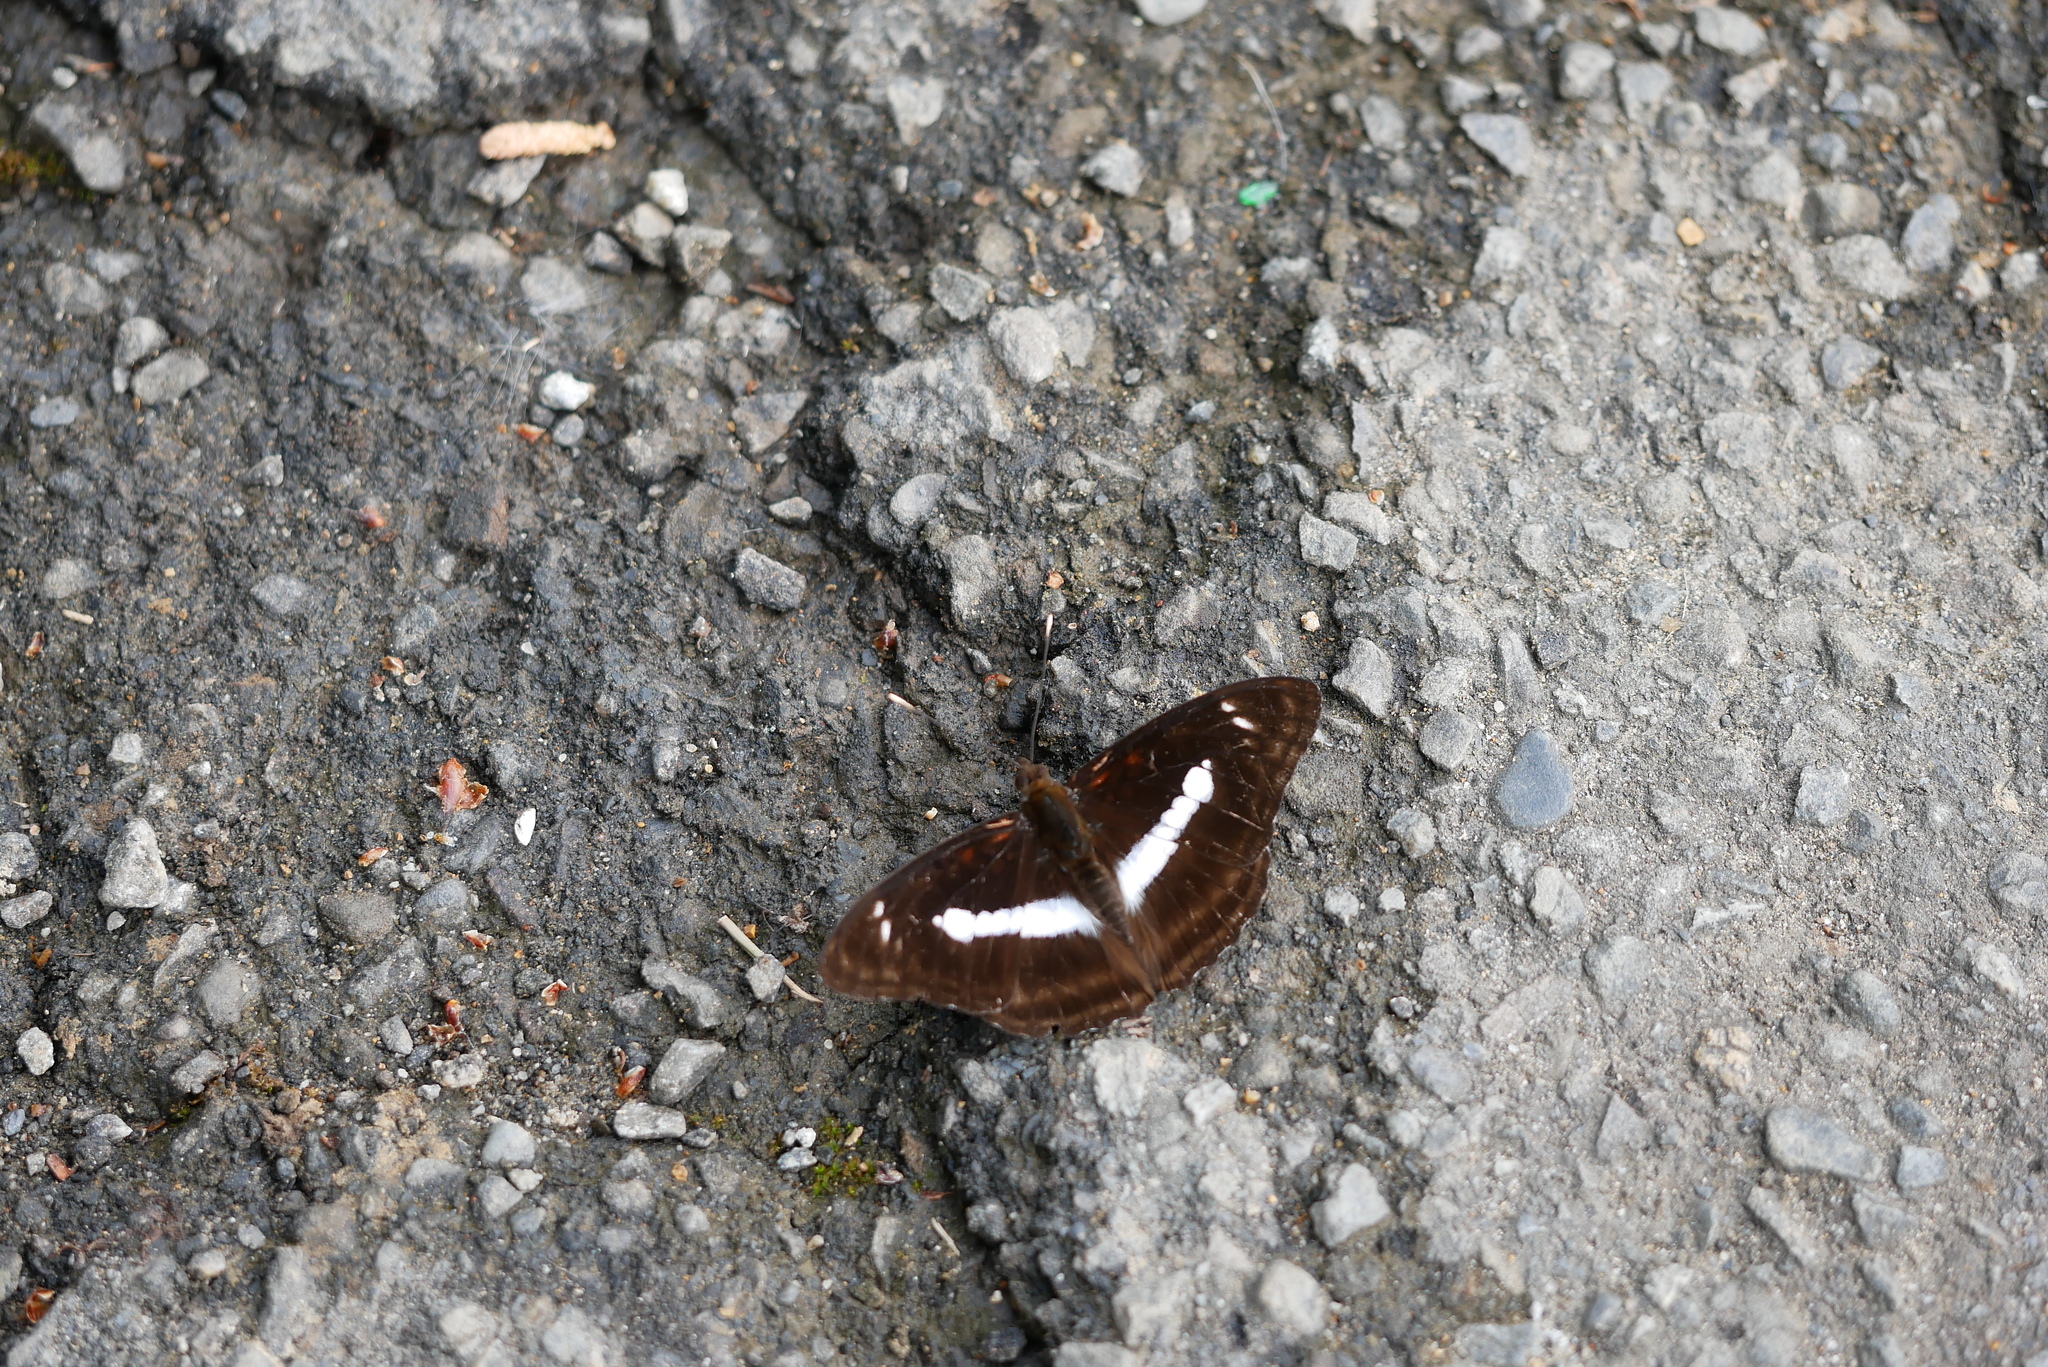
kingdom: Animalia
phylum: Arthropoda
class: Insecta
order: Lepidoptera
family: Nymphalidae
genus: Parathyma
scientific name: Parathyma selenophora
